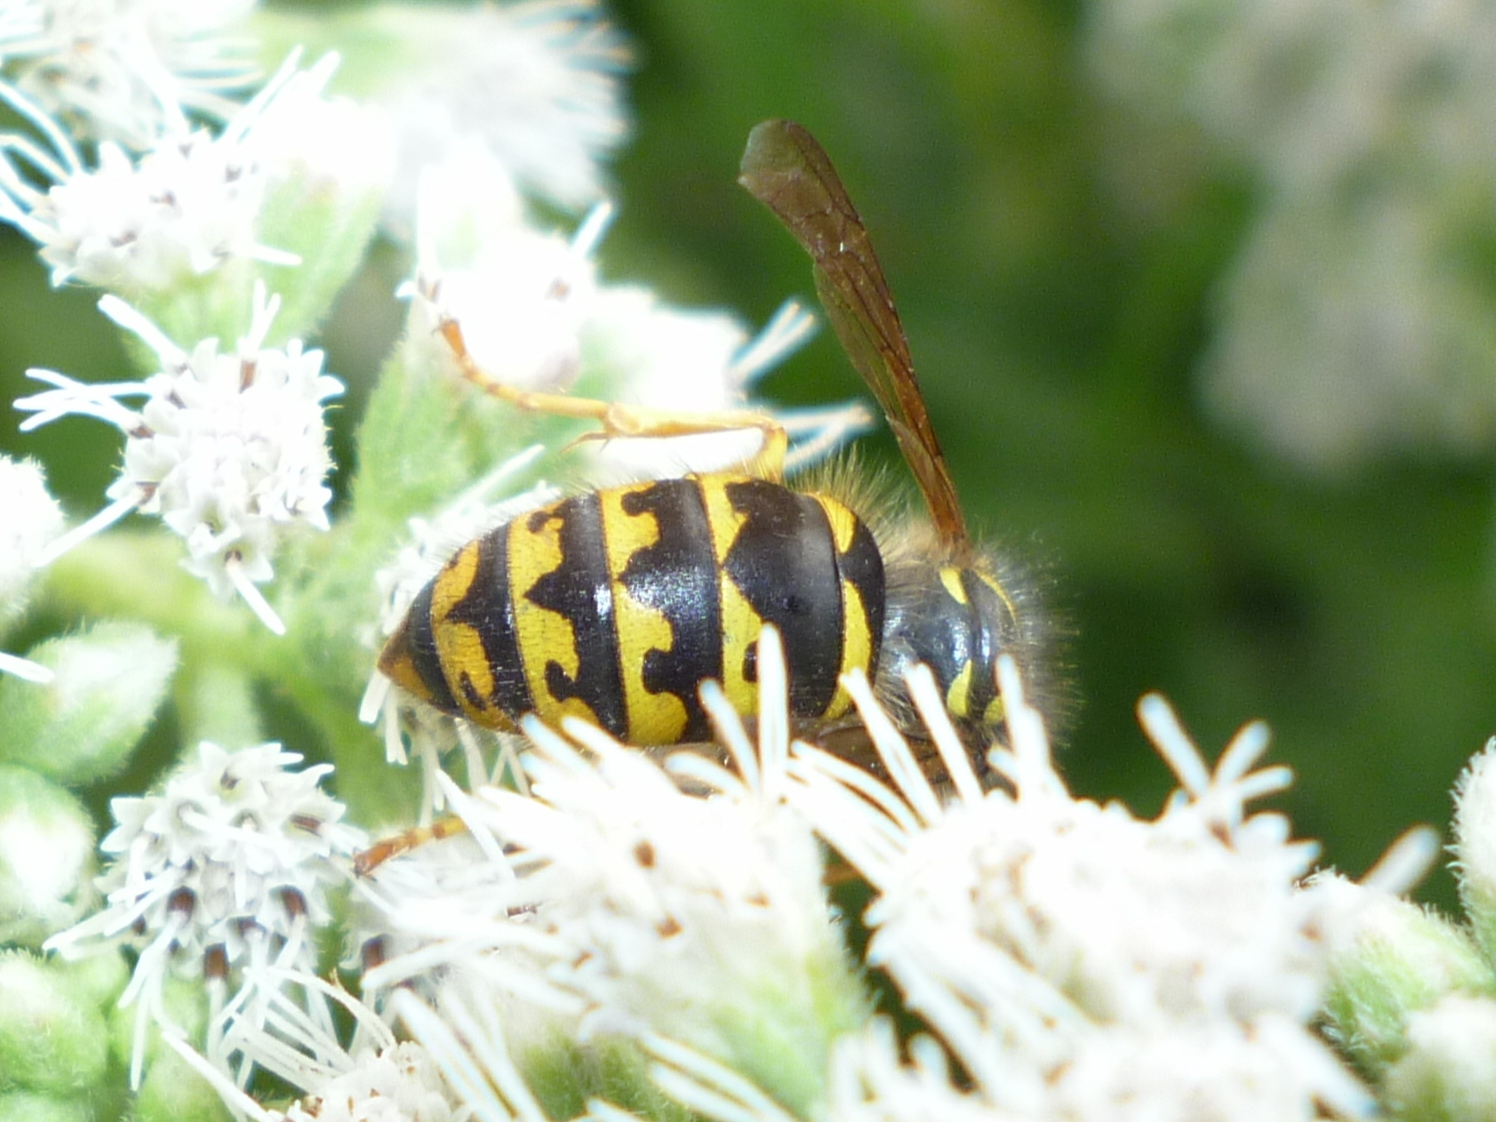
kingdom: Animalia
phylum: Arthropoda
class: Insecta
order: Hymenoptera
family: Vespidae
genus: Dolichovespula
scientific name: Dolichovespula arenaria
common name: Aerial yellowjacket
